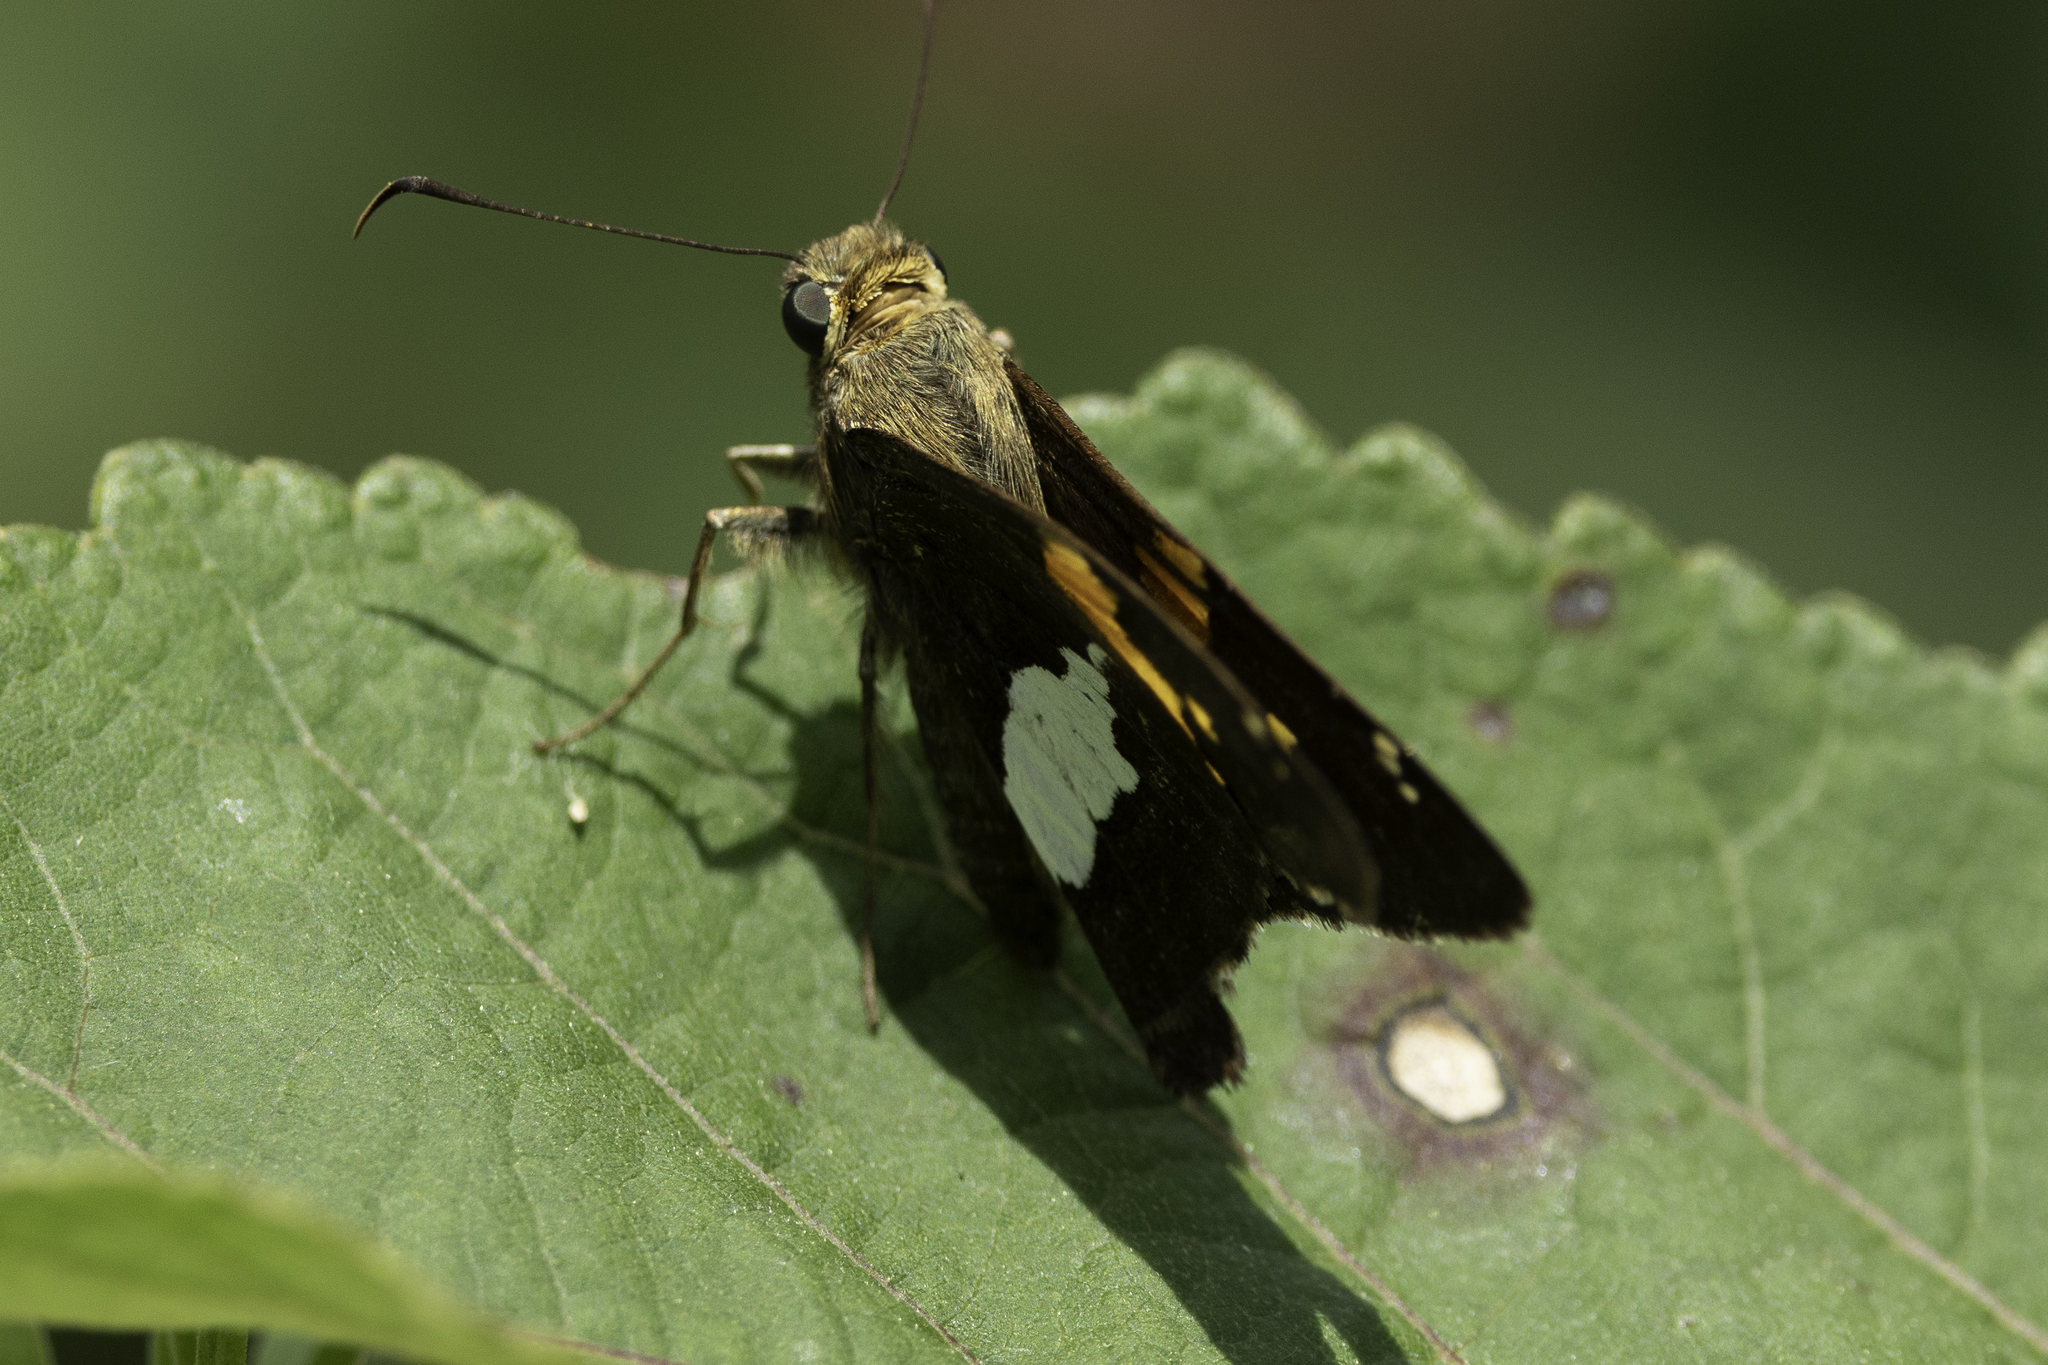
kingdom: Animalia
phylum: Arthropoda
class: Insecta
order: Lepidoptera
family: Hesperiidae
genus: Epargyreus
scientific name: Epargyreus clarus
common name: Silver-spotted skipper
